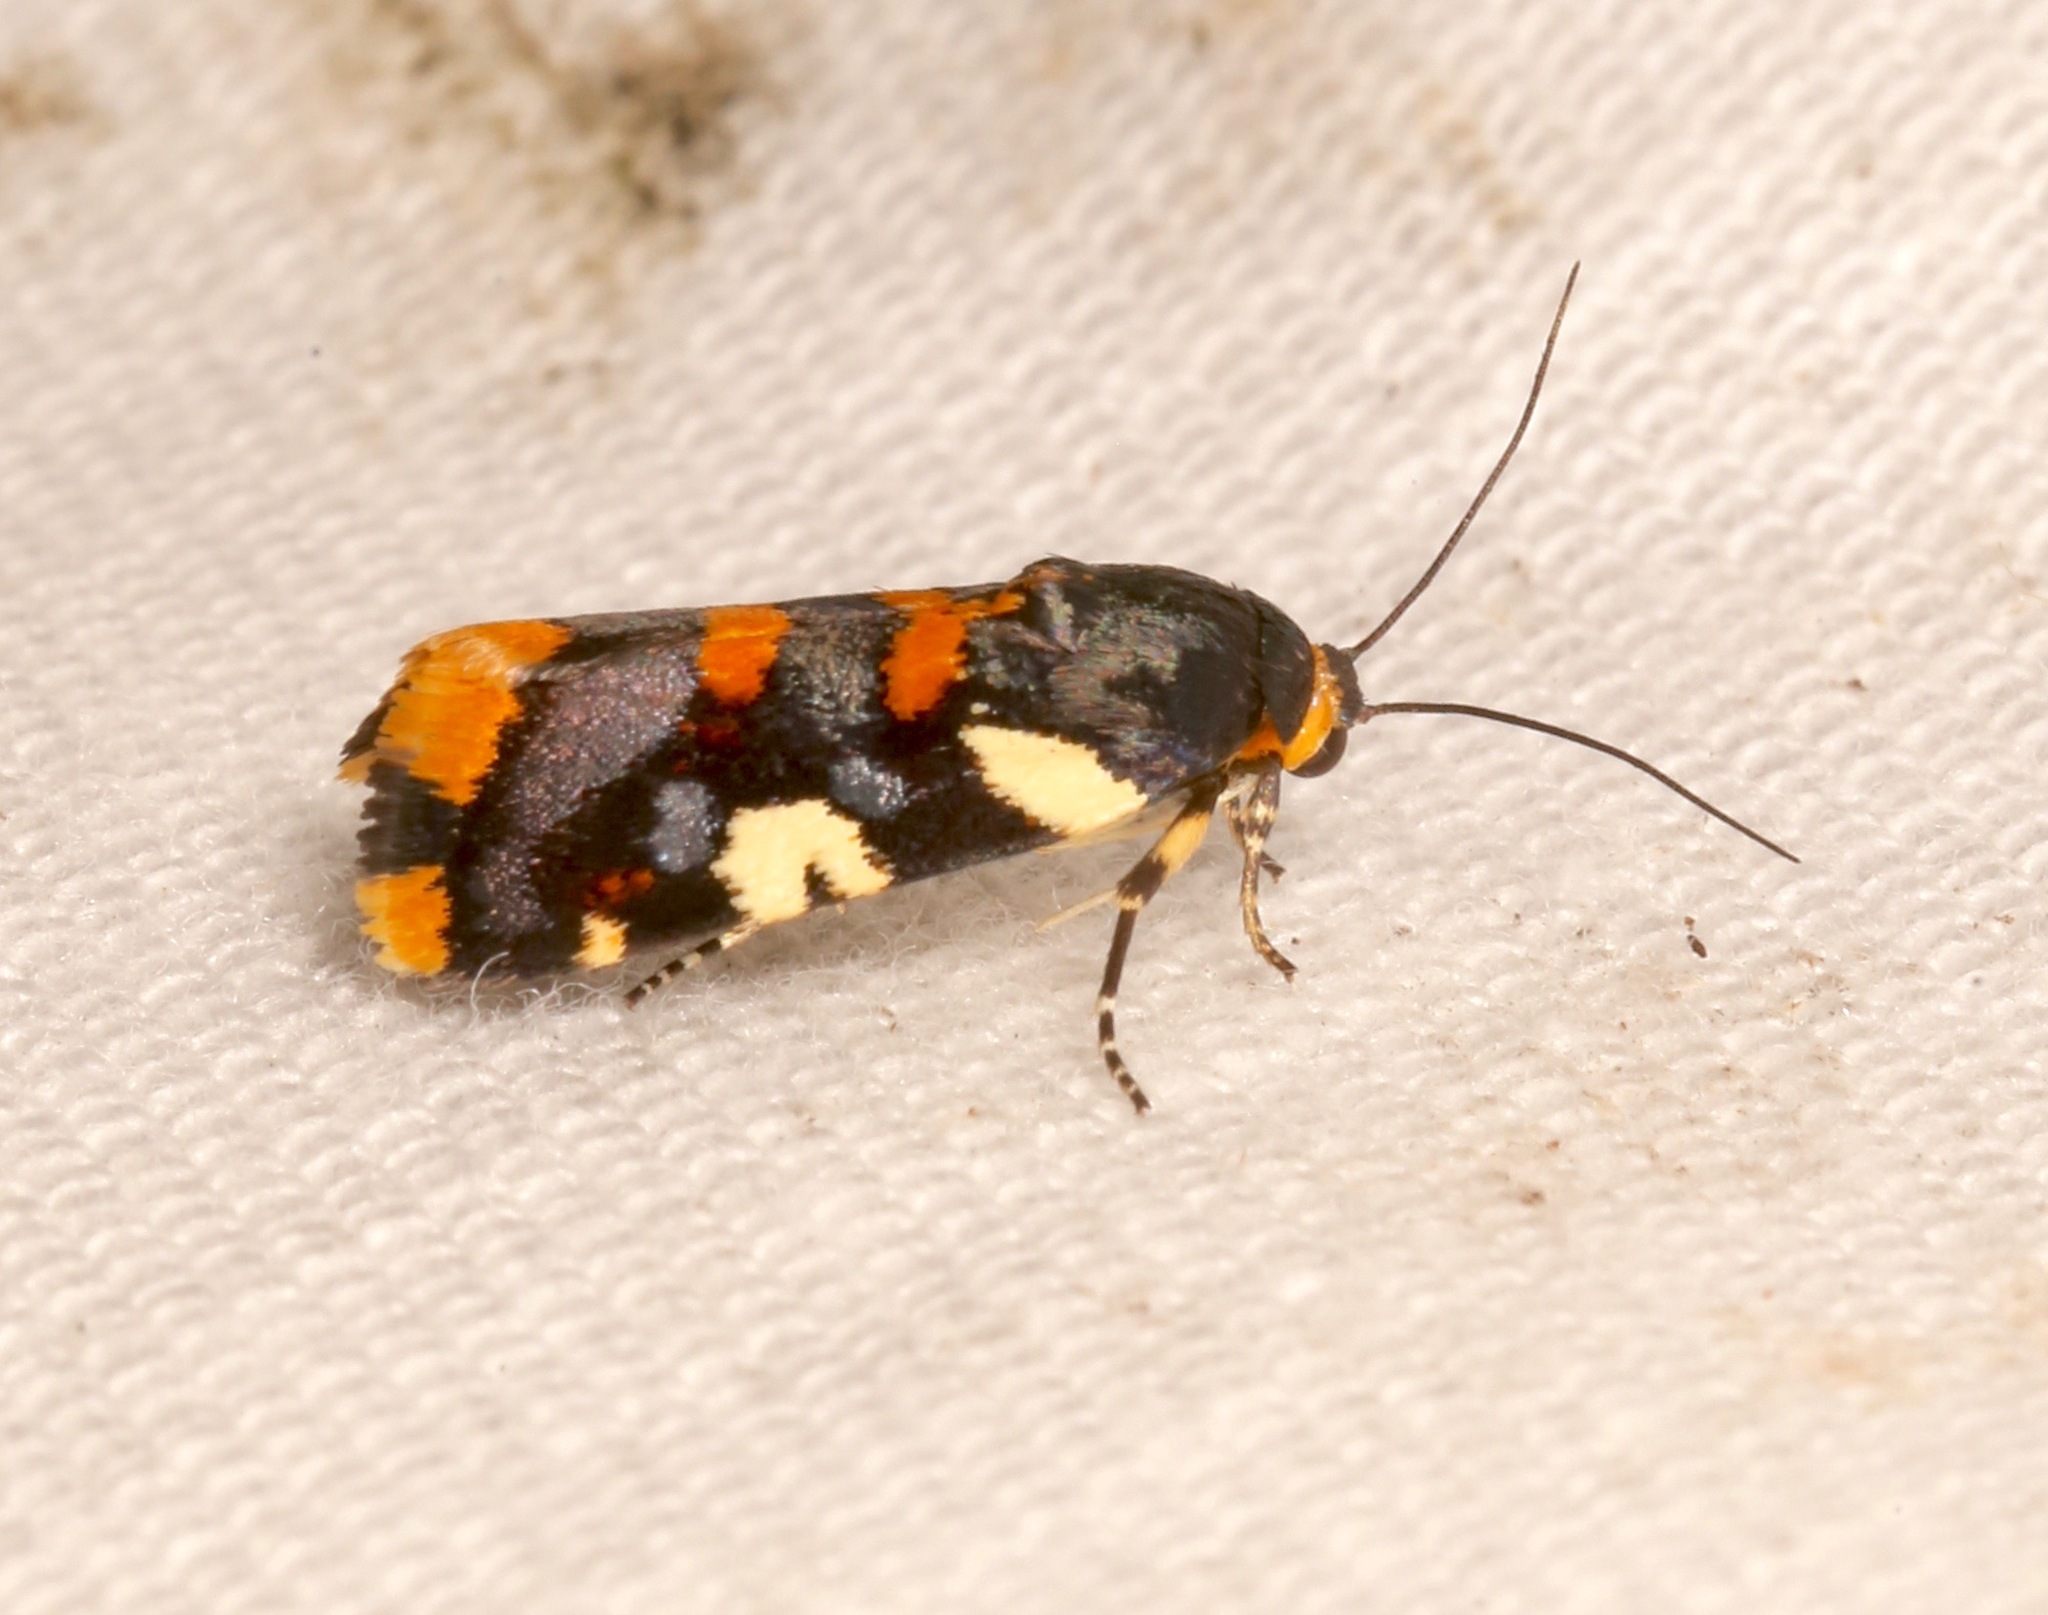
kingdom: Animalia
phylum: Arthropoda
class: Insecta
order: Lepidoptera
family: Noctuidae
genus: Acontia
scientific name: Acontia dama
